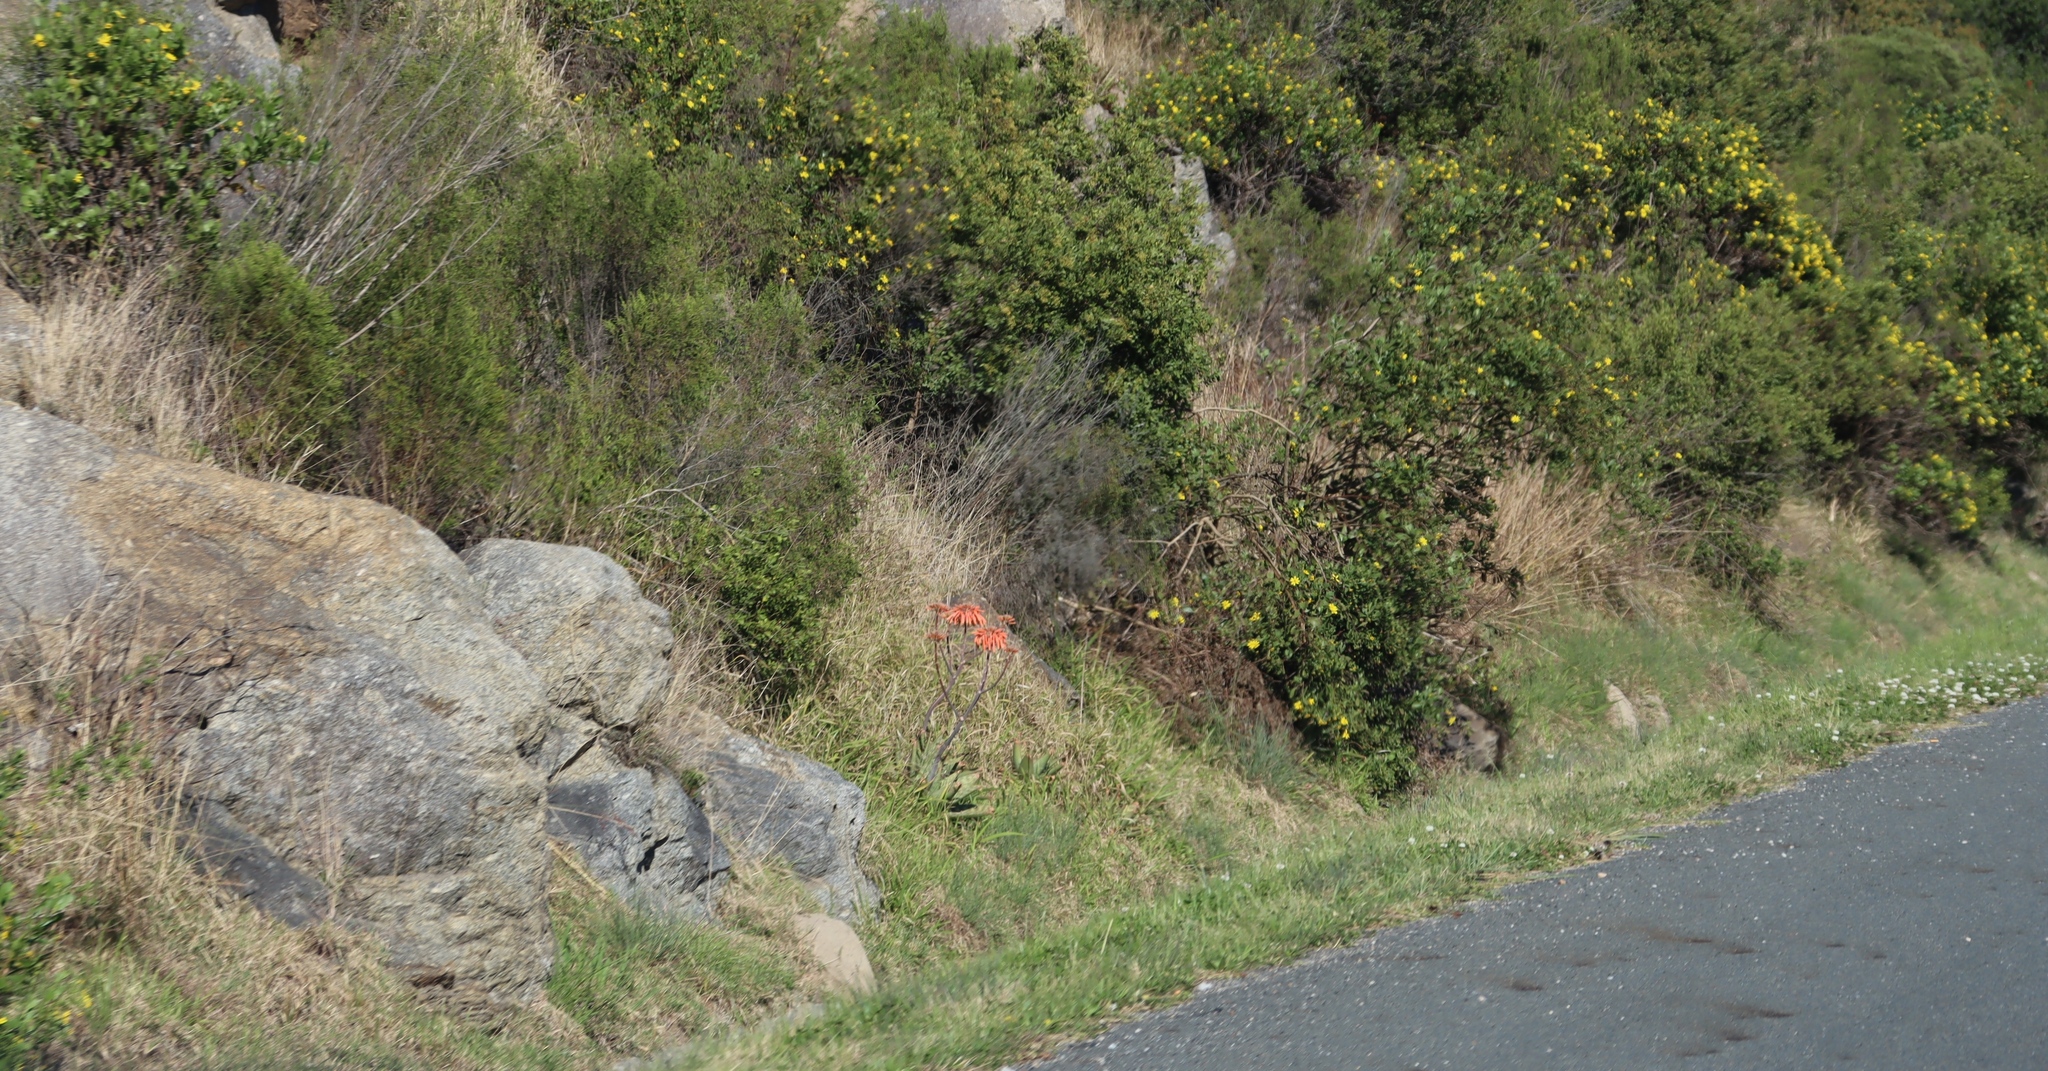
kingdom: Plantae
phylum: Tracheophyta
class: Magnoliopsida
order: Asterales
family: Asteraceae
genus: Osteospermum
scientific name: Osteospermum moniliferum
